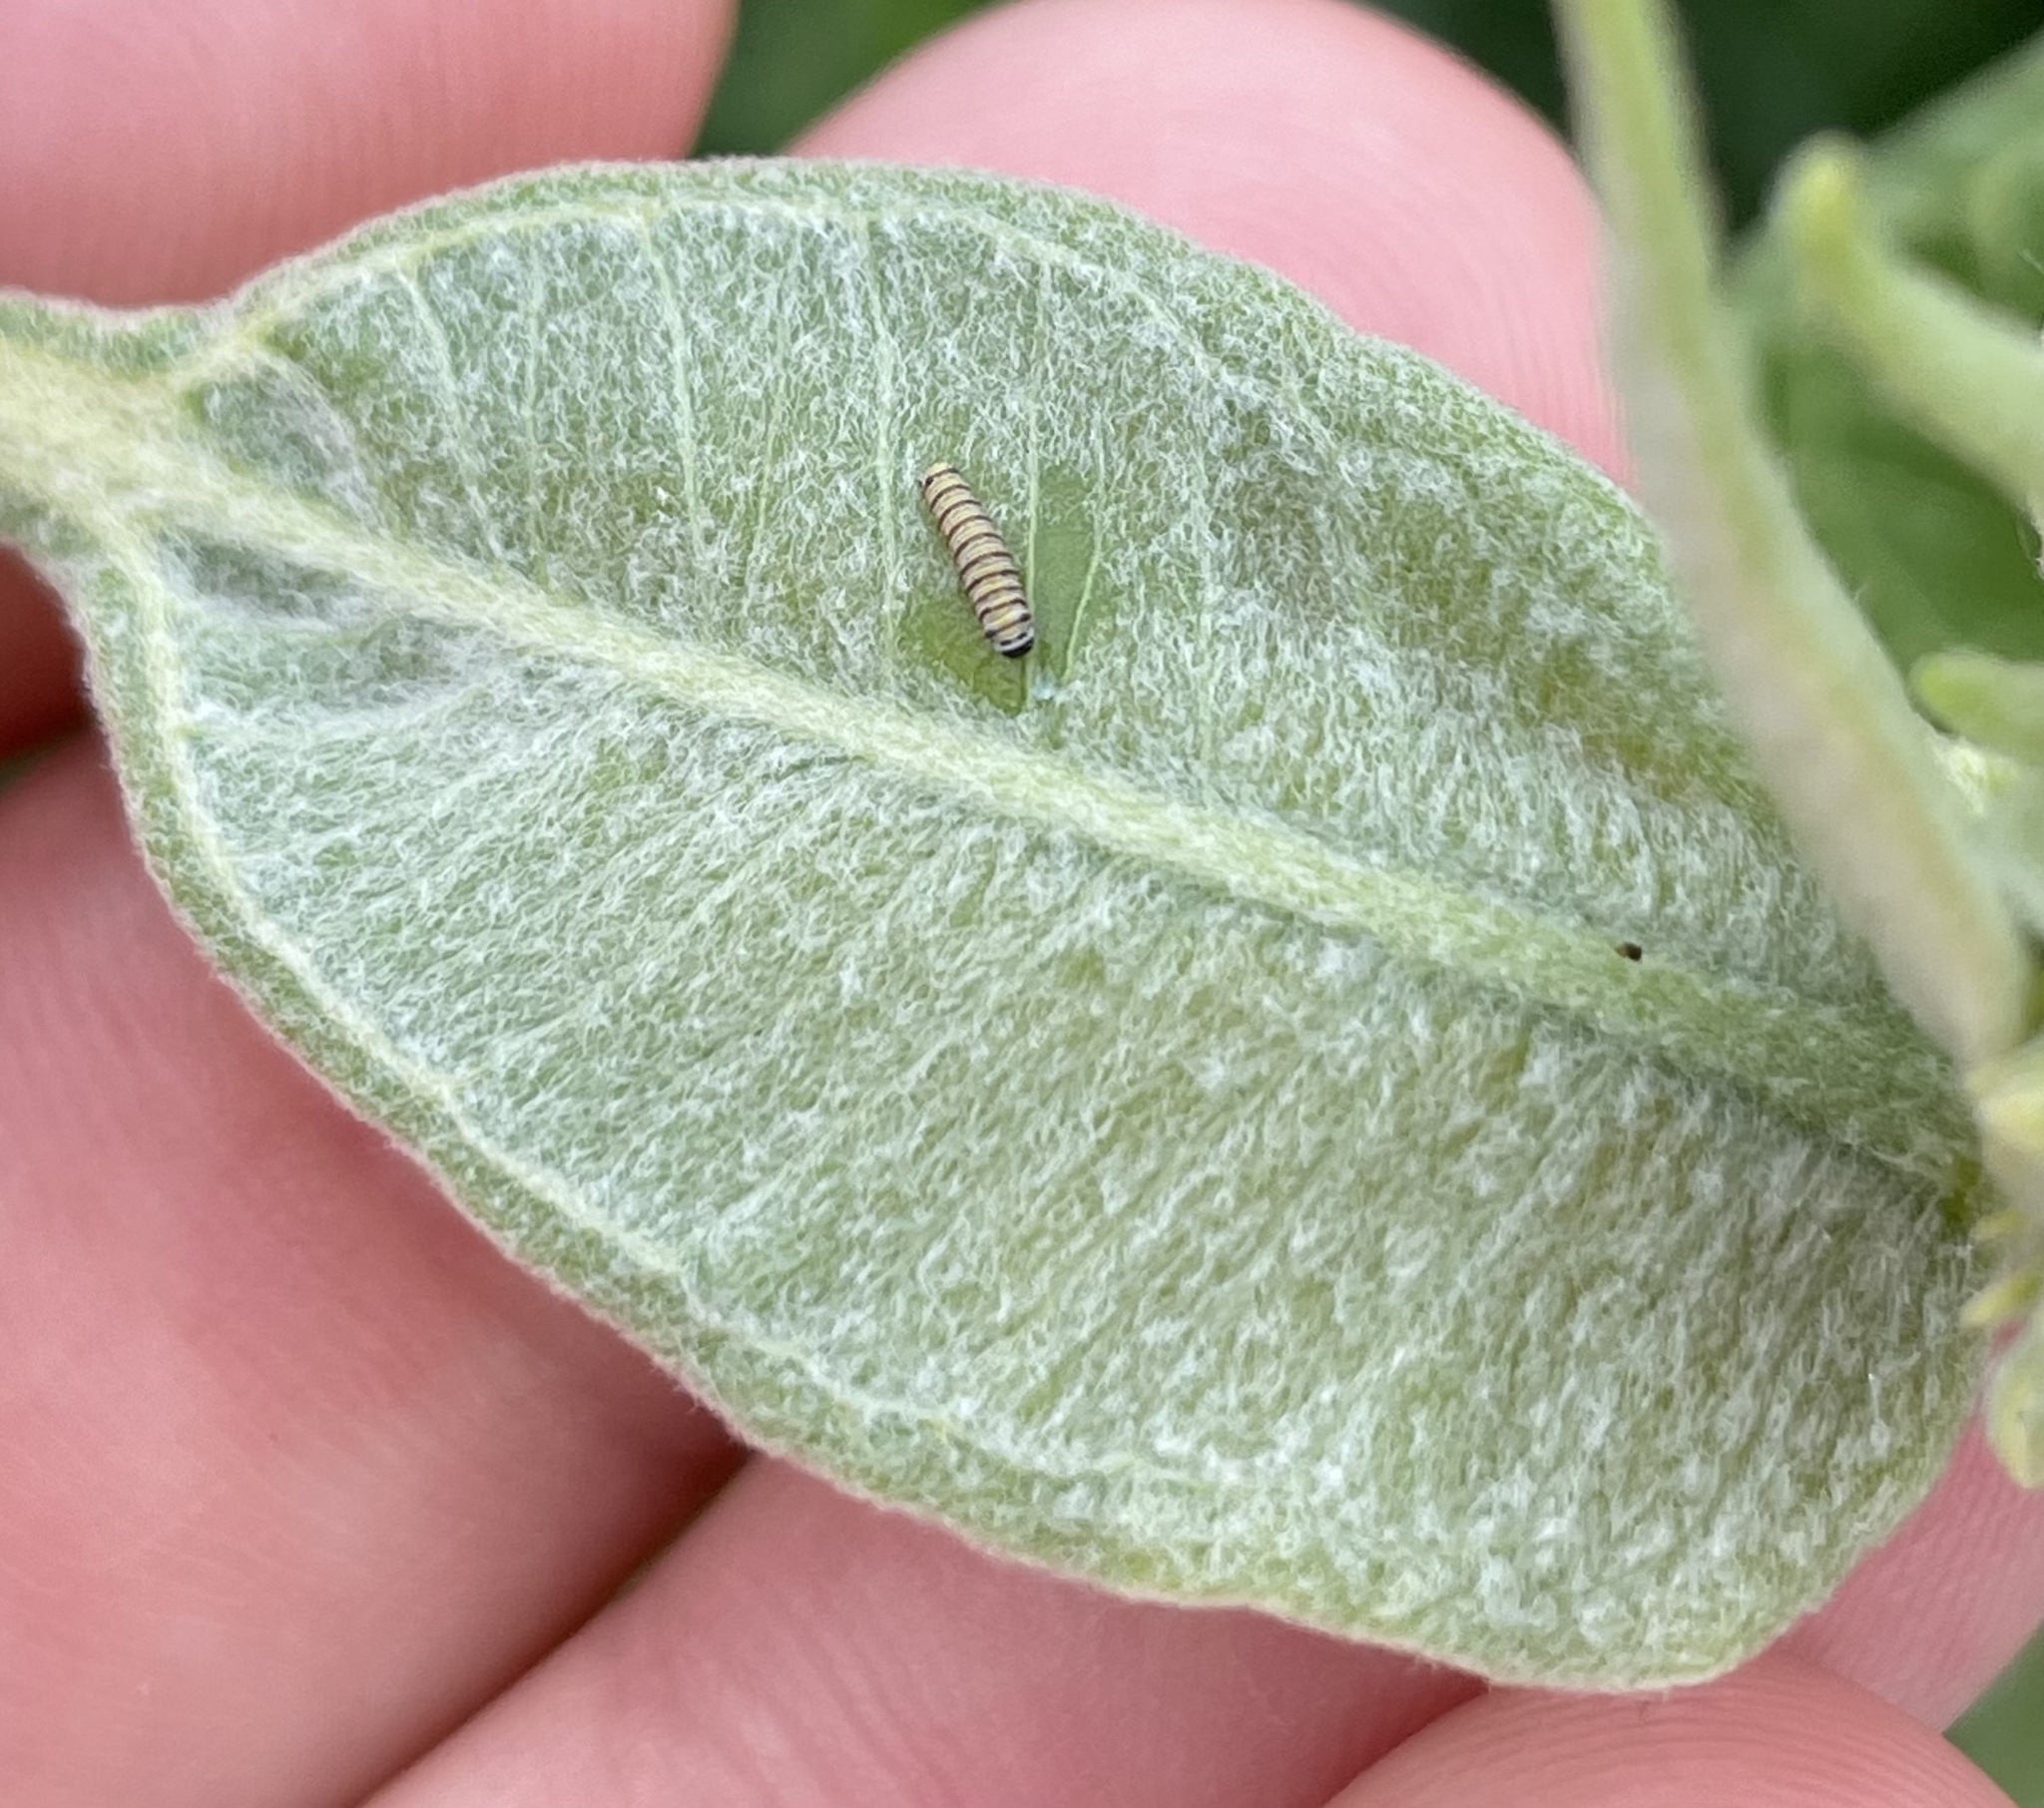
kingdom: Animalia
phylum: Arthropoda
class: Insecta
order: Lepidoptera
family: Nymphalidae
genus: Danaus
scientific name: Danaus plexippus
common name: Monarch
